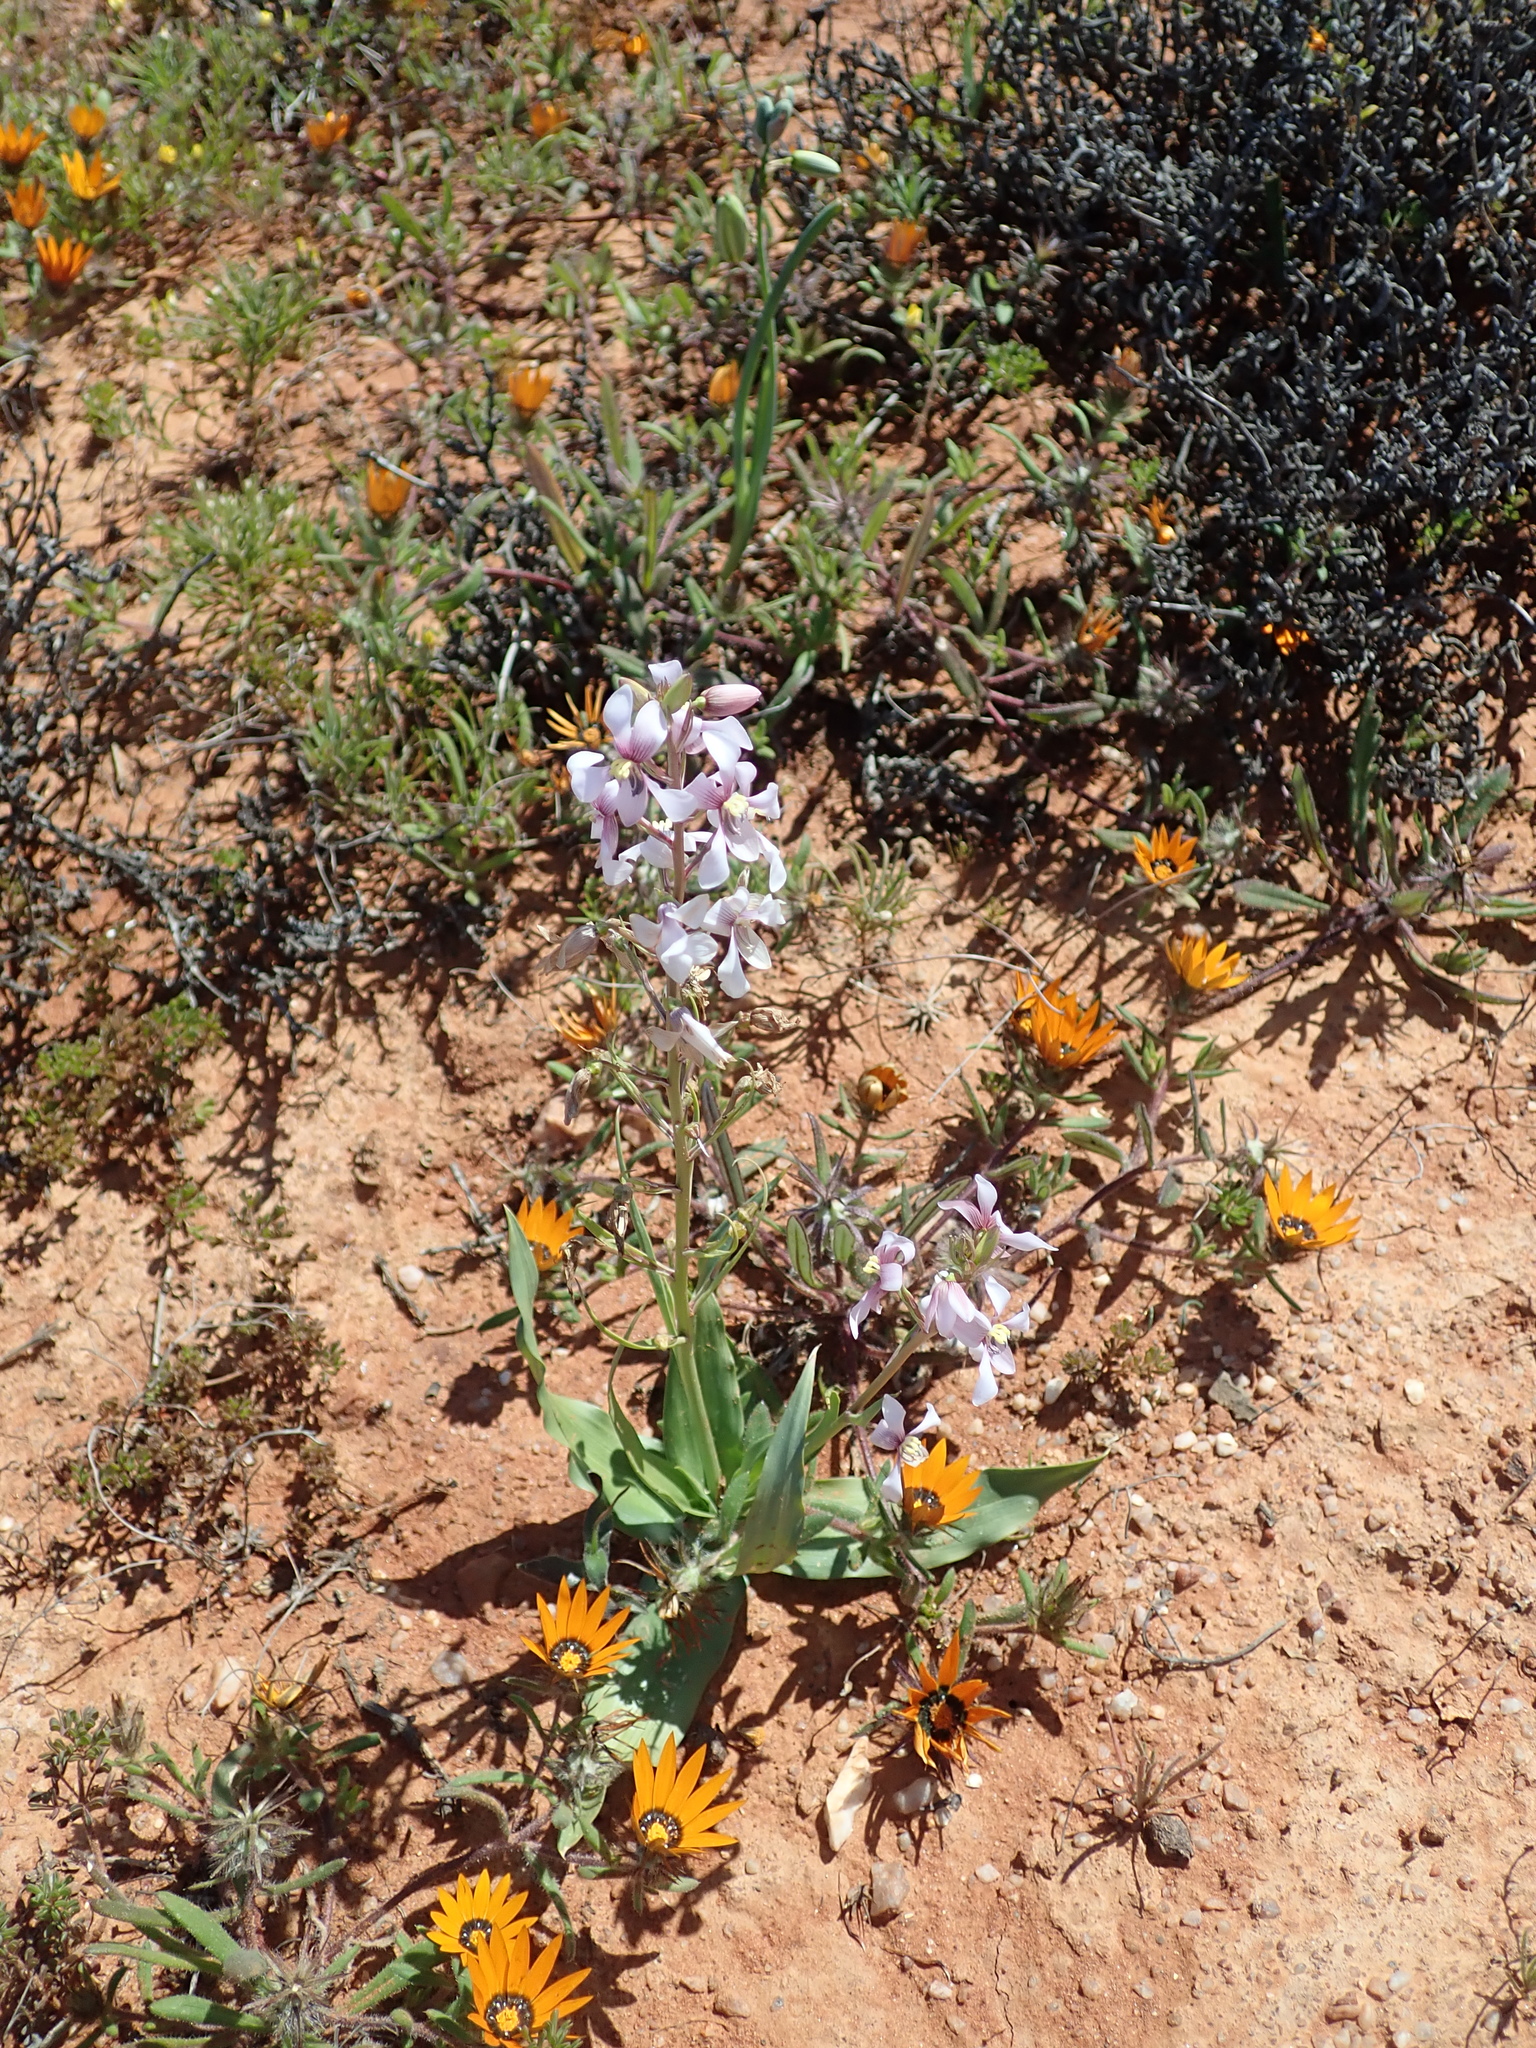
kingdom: Plantae
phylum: Tracheophyta
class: Liliopsida
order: Asparagales
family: Tecophilaeaceae
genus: Cyanella
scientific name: Cyanella orchidiformis
